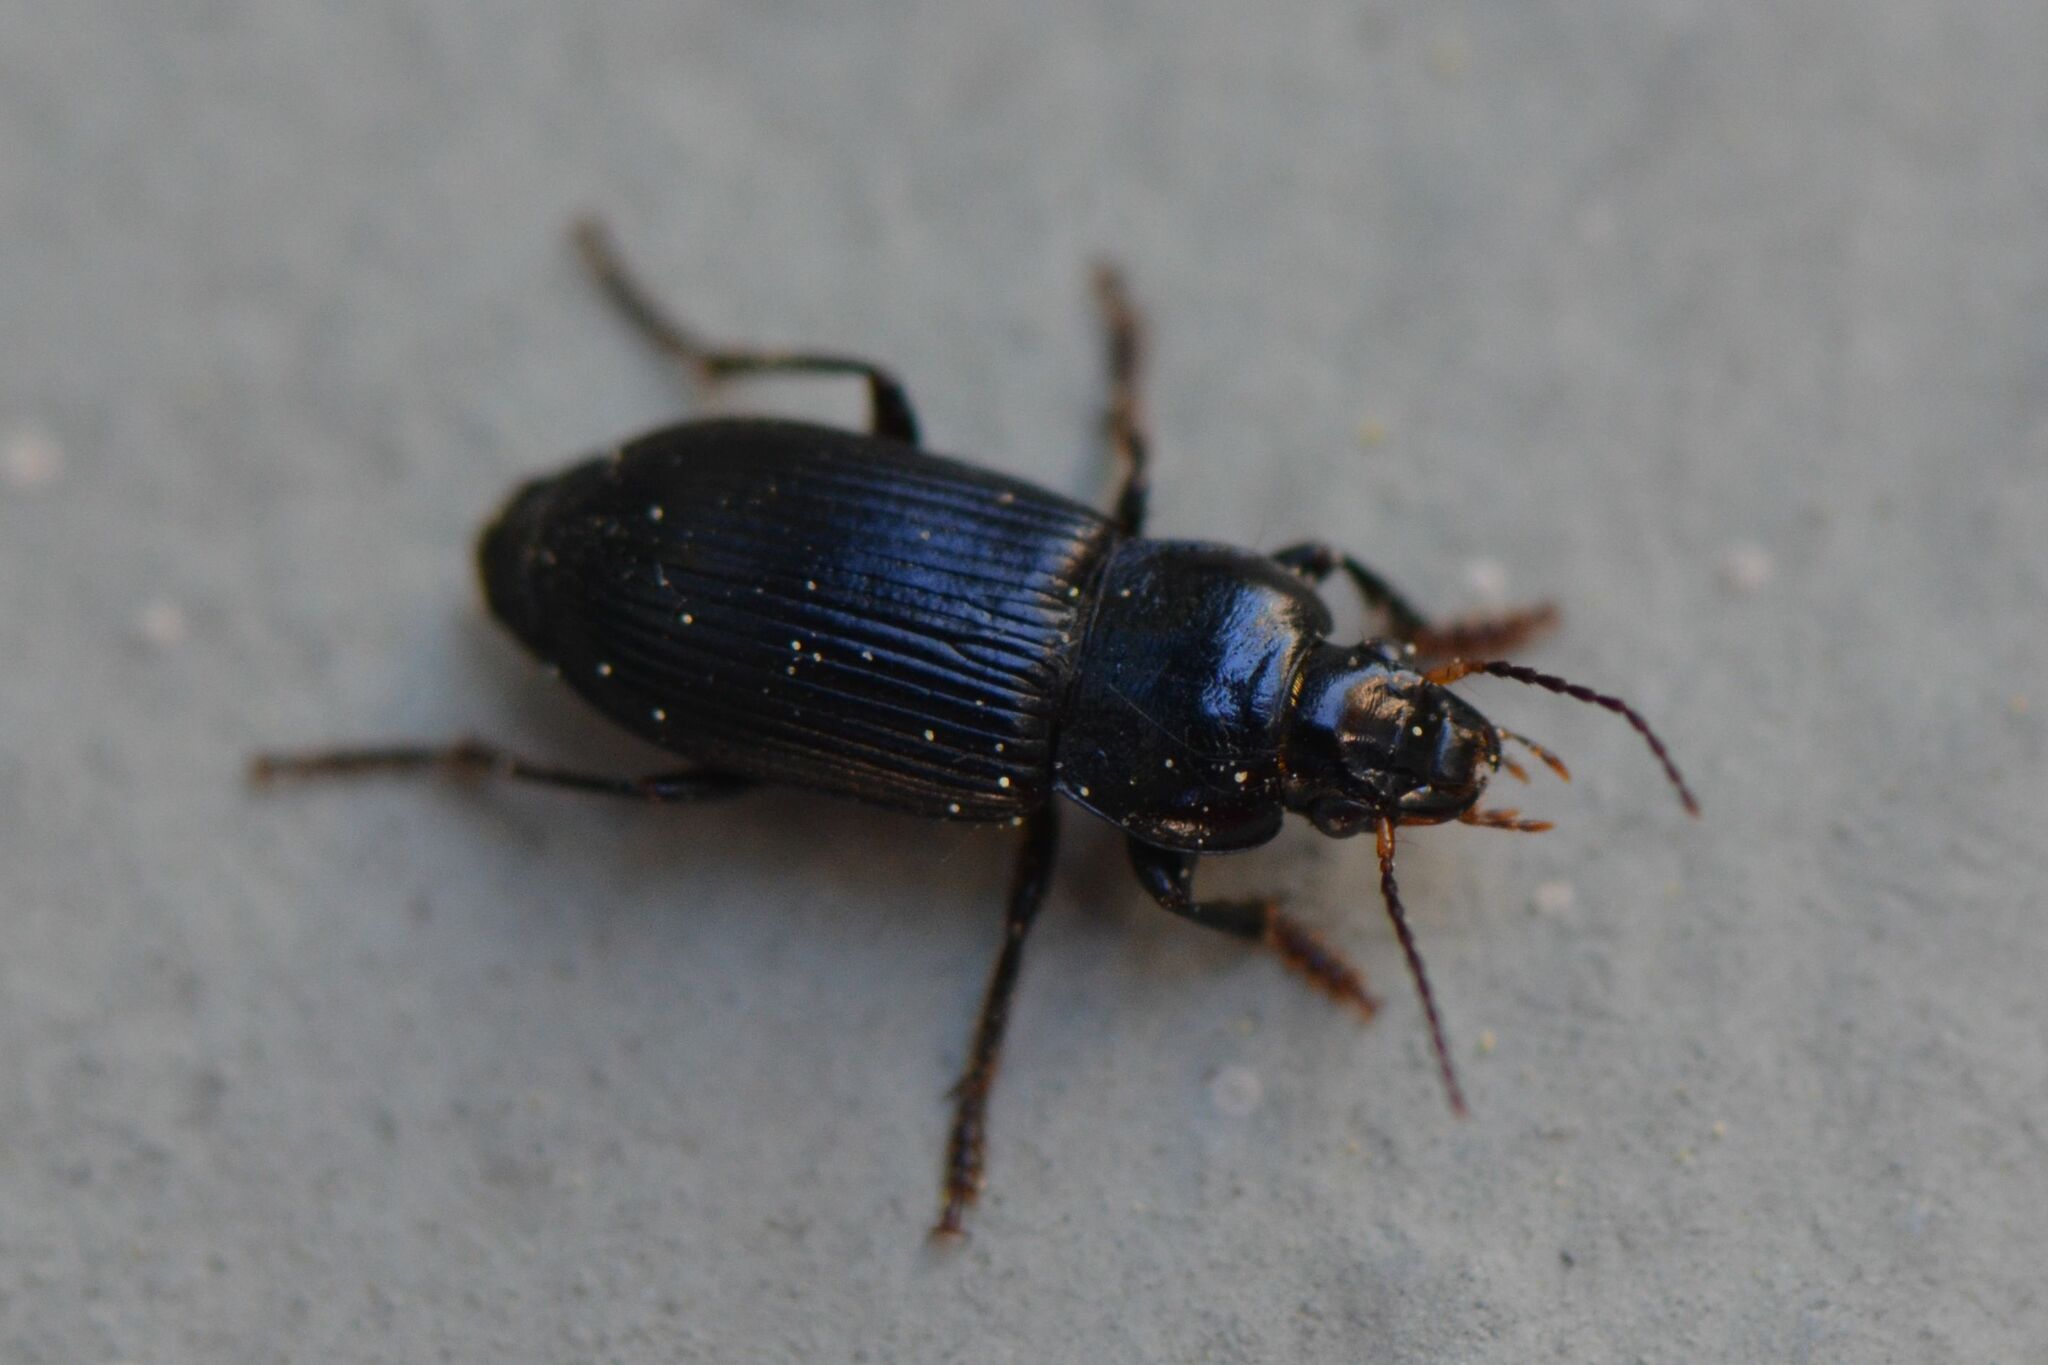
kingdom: Animalia
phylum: Arthropoda
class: Insecta
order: Coleoptera
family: Carabidae
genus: Anisodactylus
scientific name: Anisodactylus binotatus
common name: Two-marked harp ground beetle
